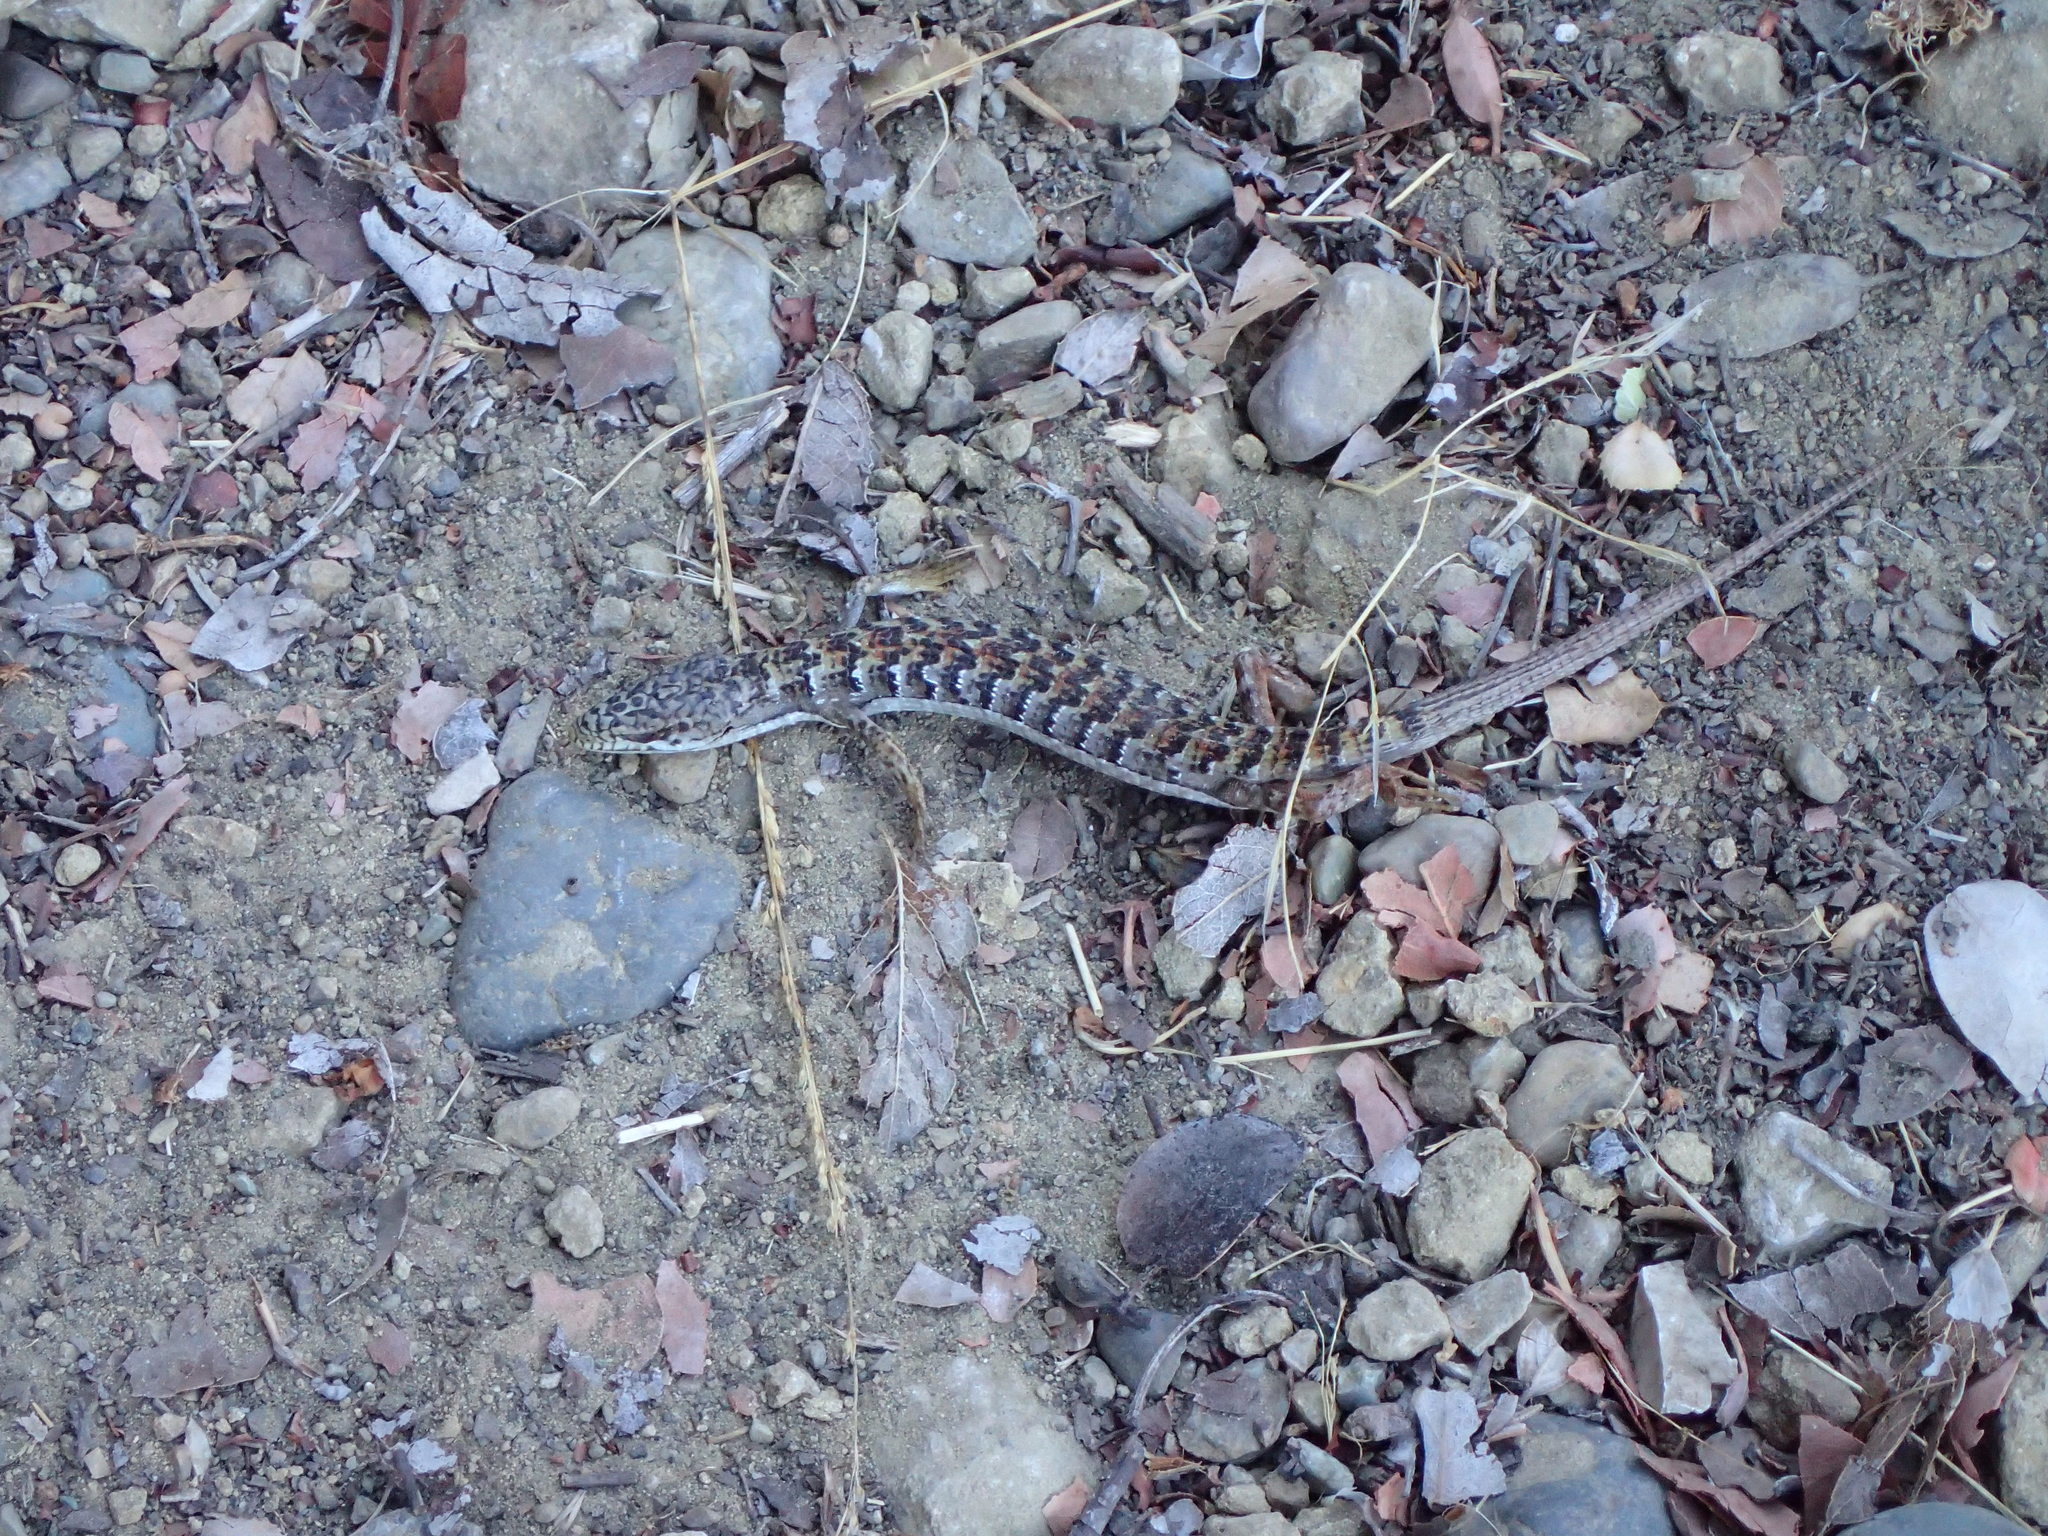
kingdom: Animalia
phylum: Chordata
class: Squamata
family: Anguidae
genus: Elgaria
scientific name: Elgaria multicarinata
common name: Southern alligator lizard
